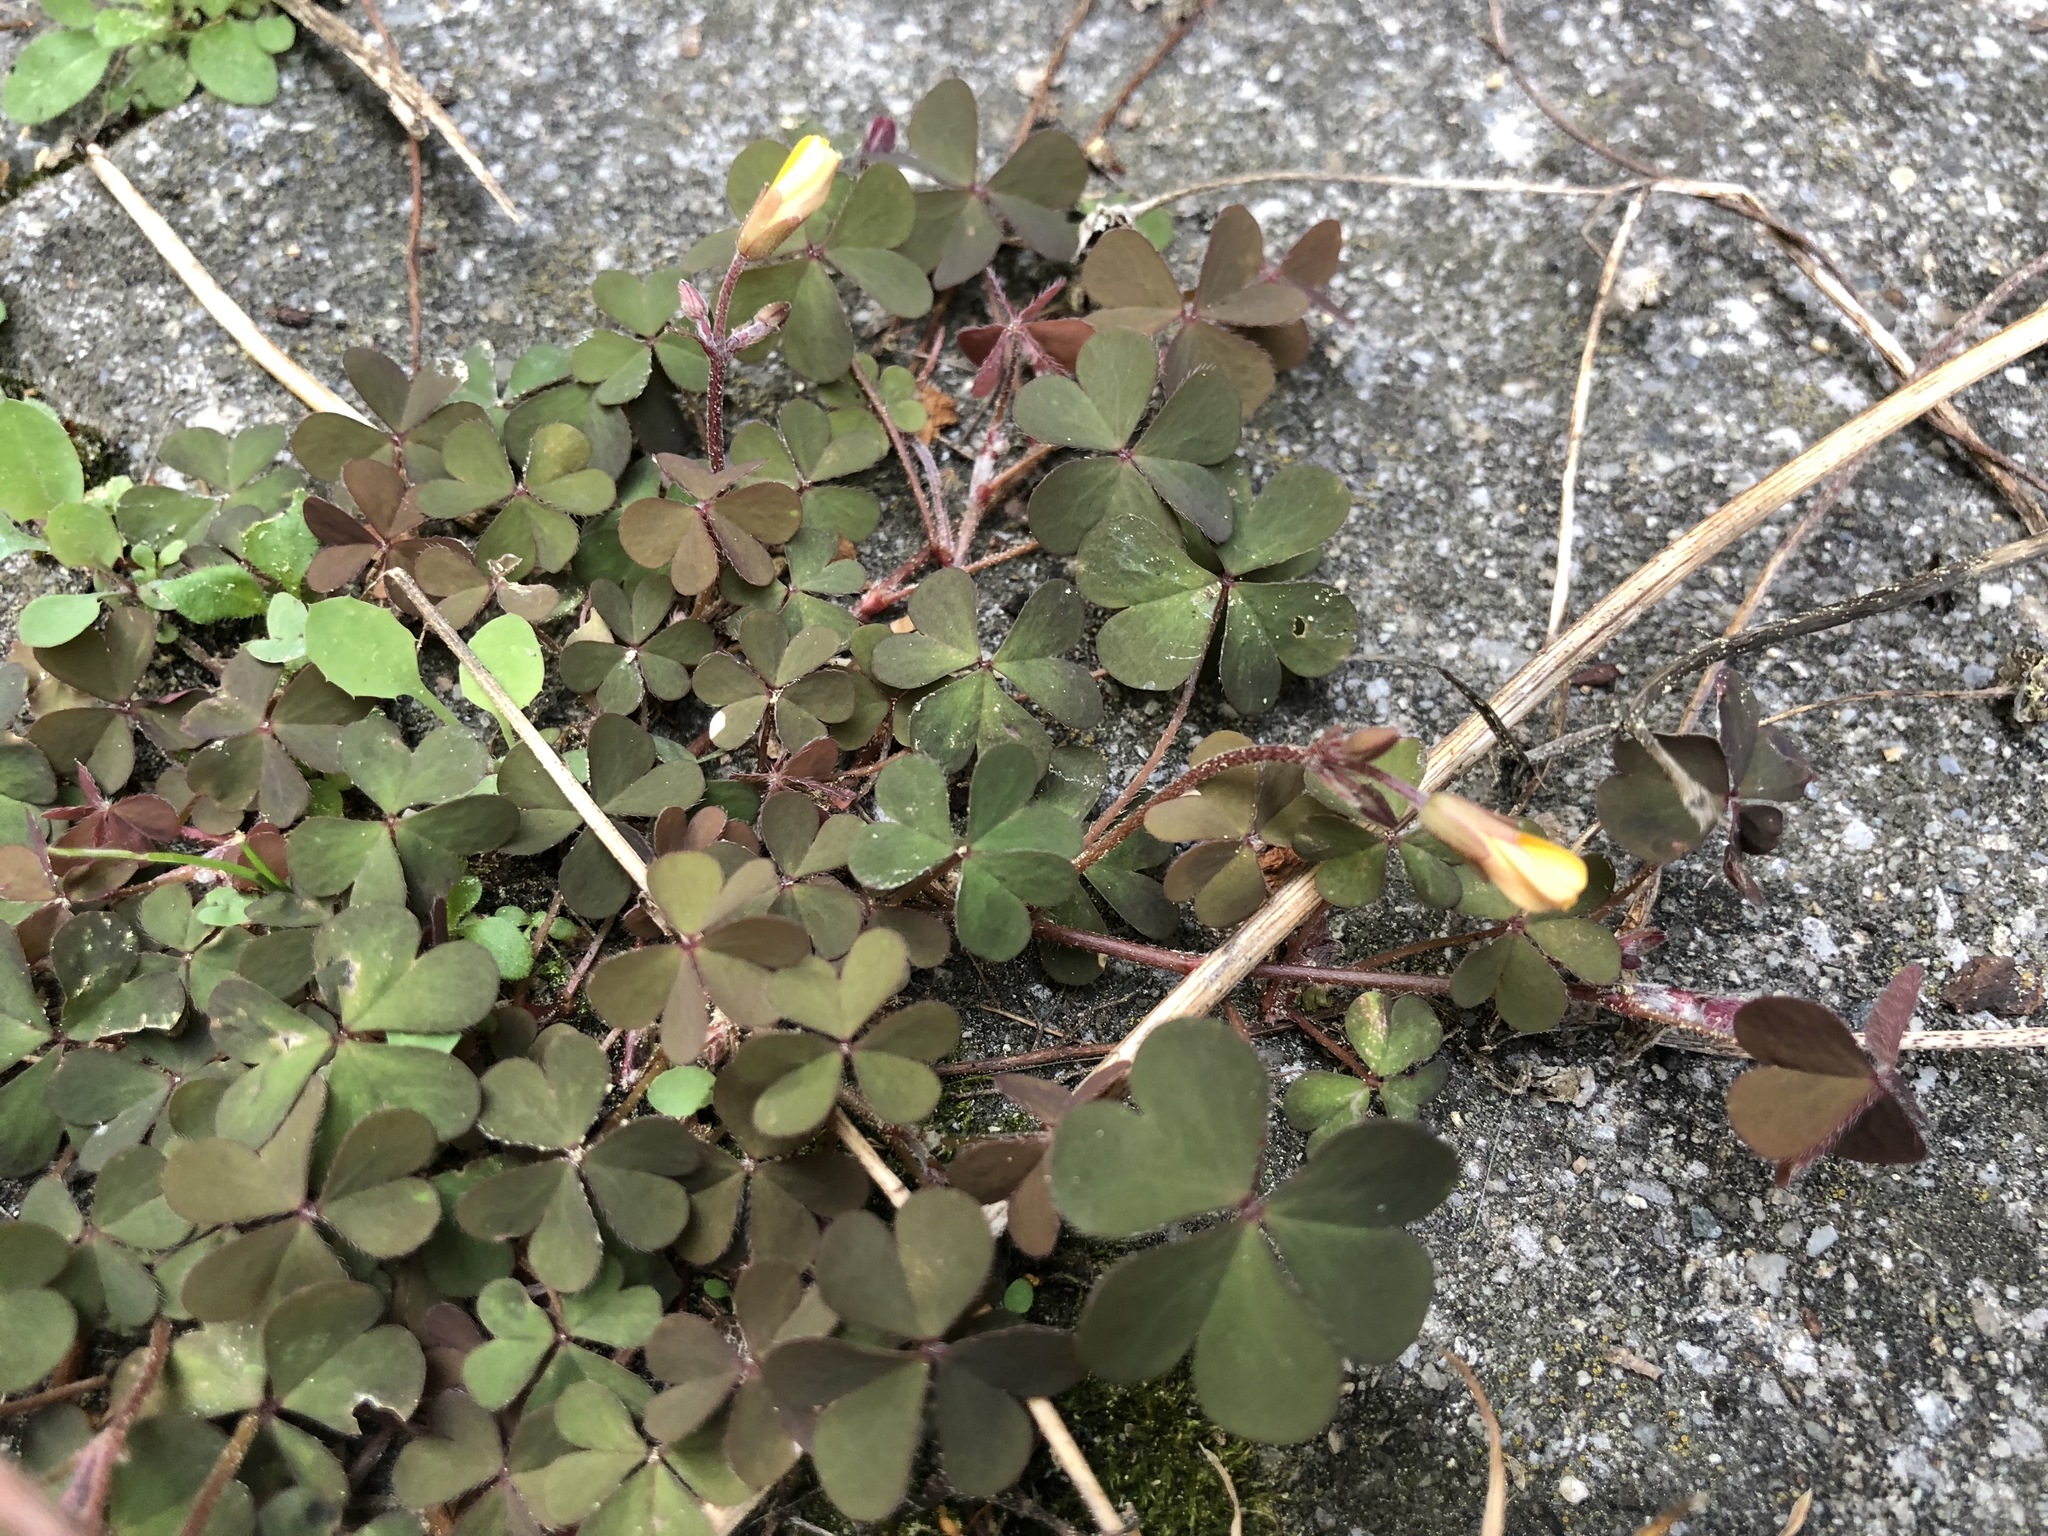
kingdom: Plantae
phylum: Tracheophyta
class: Magnoliopsida
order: Oxalidales
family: Oxalidaceae
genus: Oxalis
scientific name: Oxalis corniculata
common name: Procumbent yellow-sorrel
